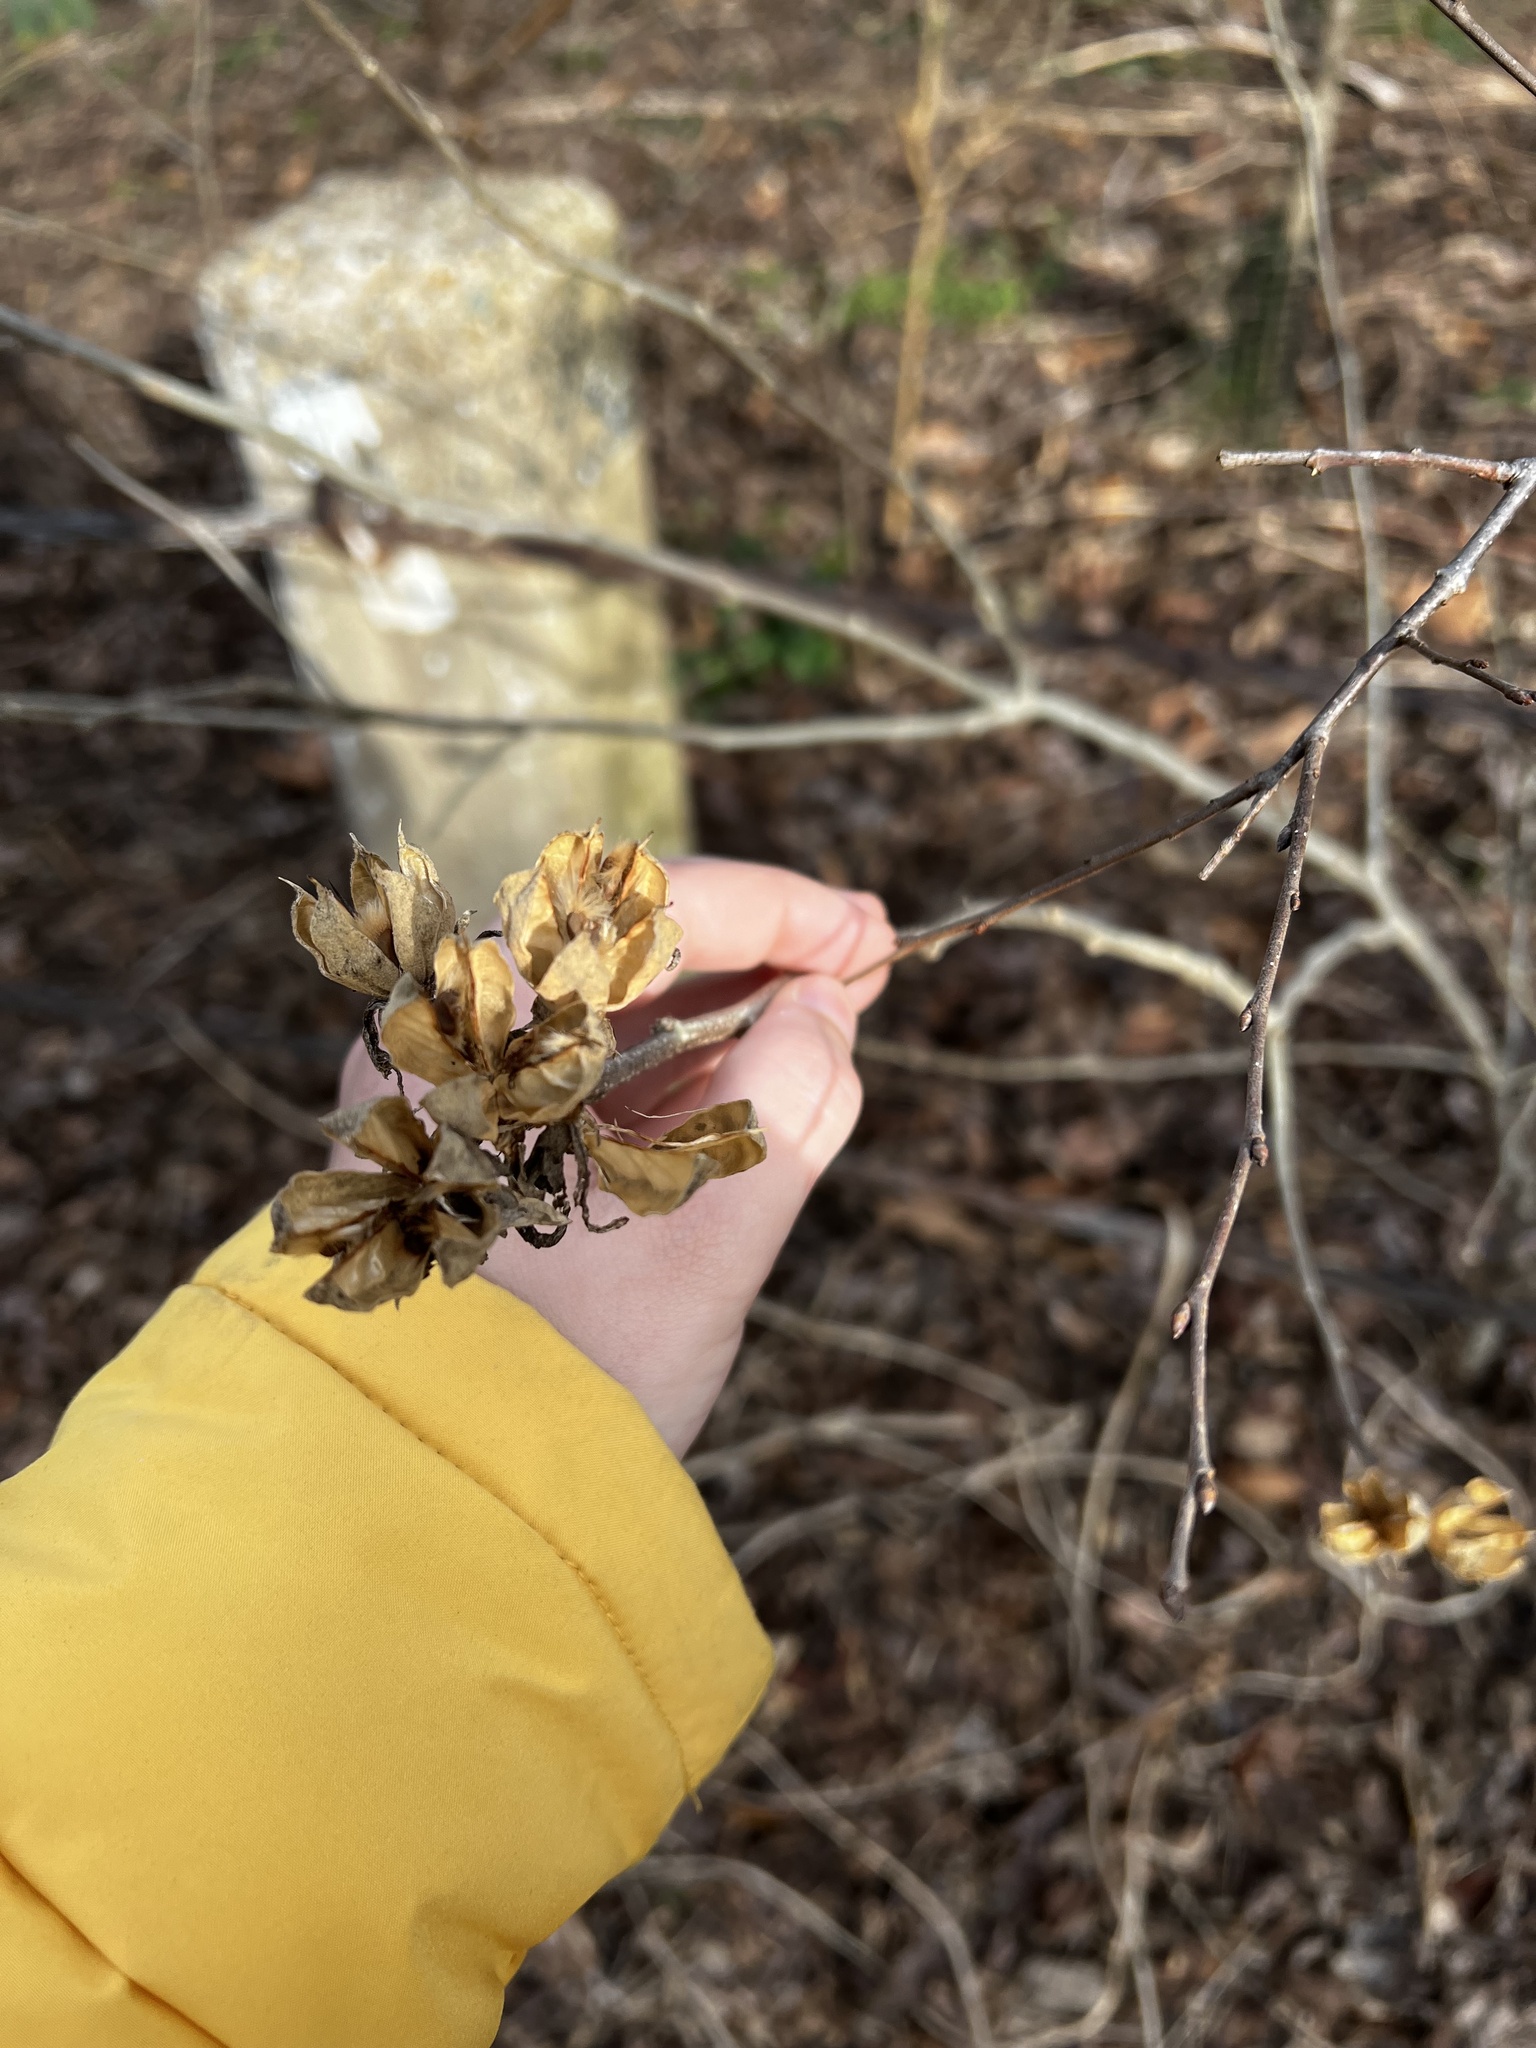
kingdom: Plantae
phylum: Tracheophyta
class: Magnoliopsida
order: Malvales
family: Malvaceae
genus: Hibiscus
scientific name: Hibiscus syriacus
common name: Syrian ketmia
